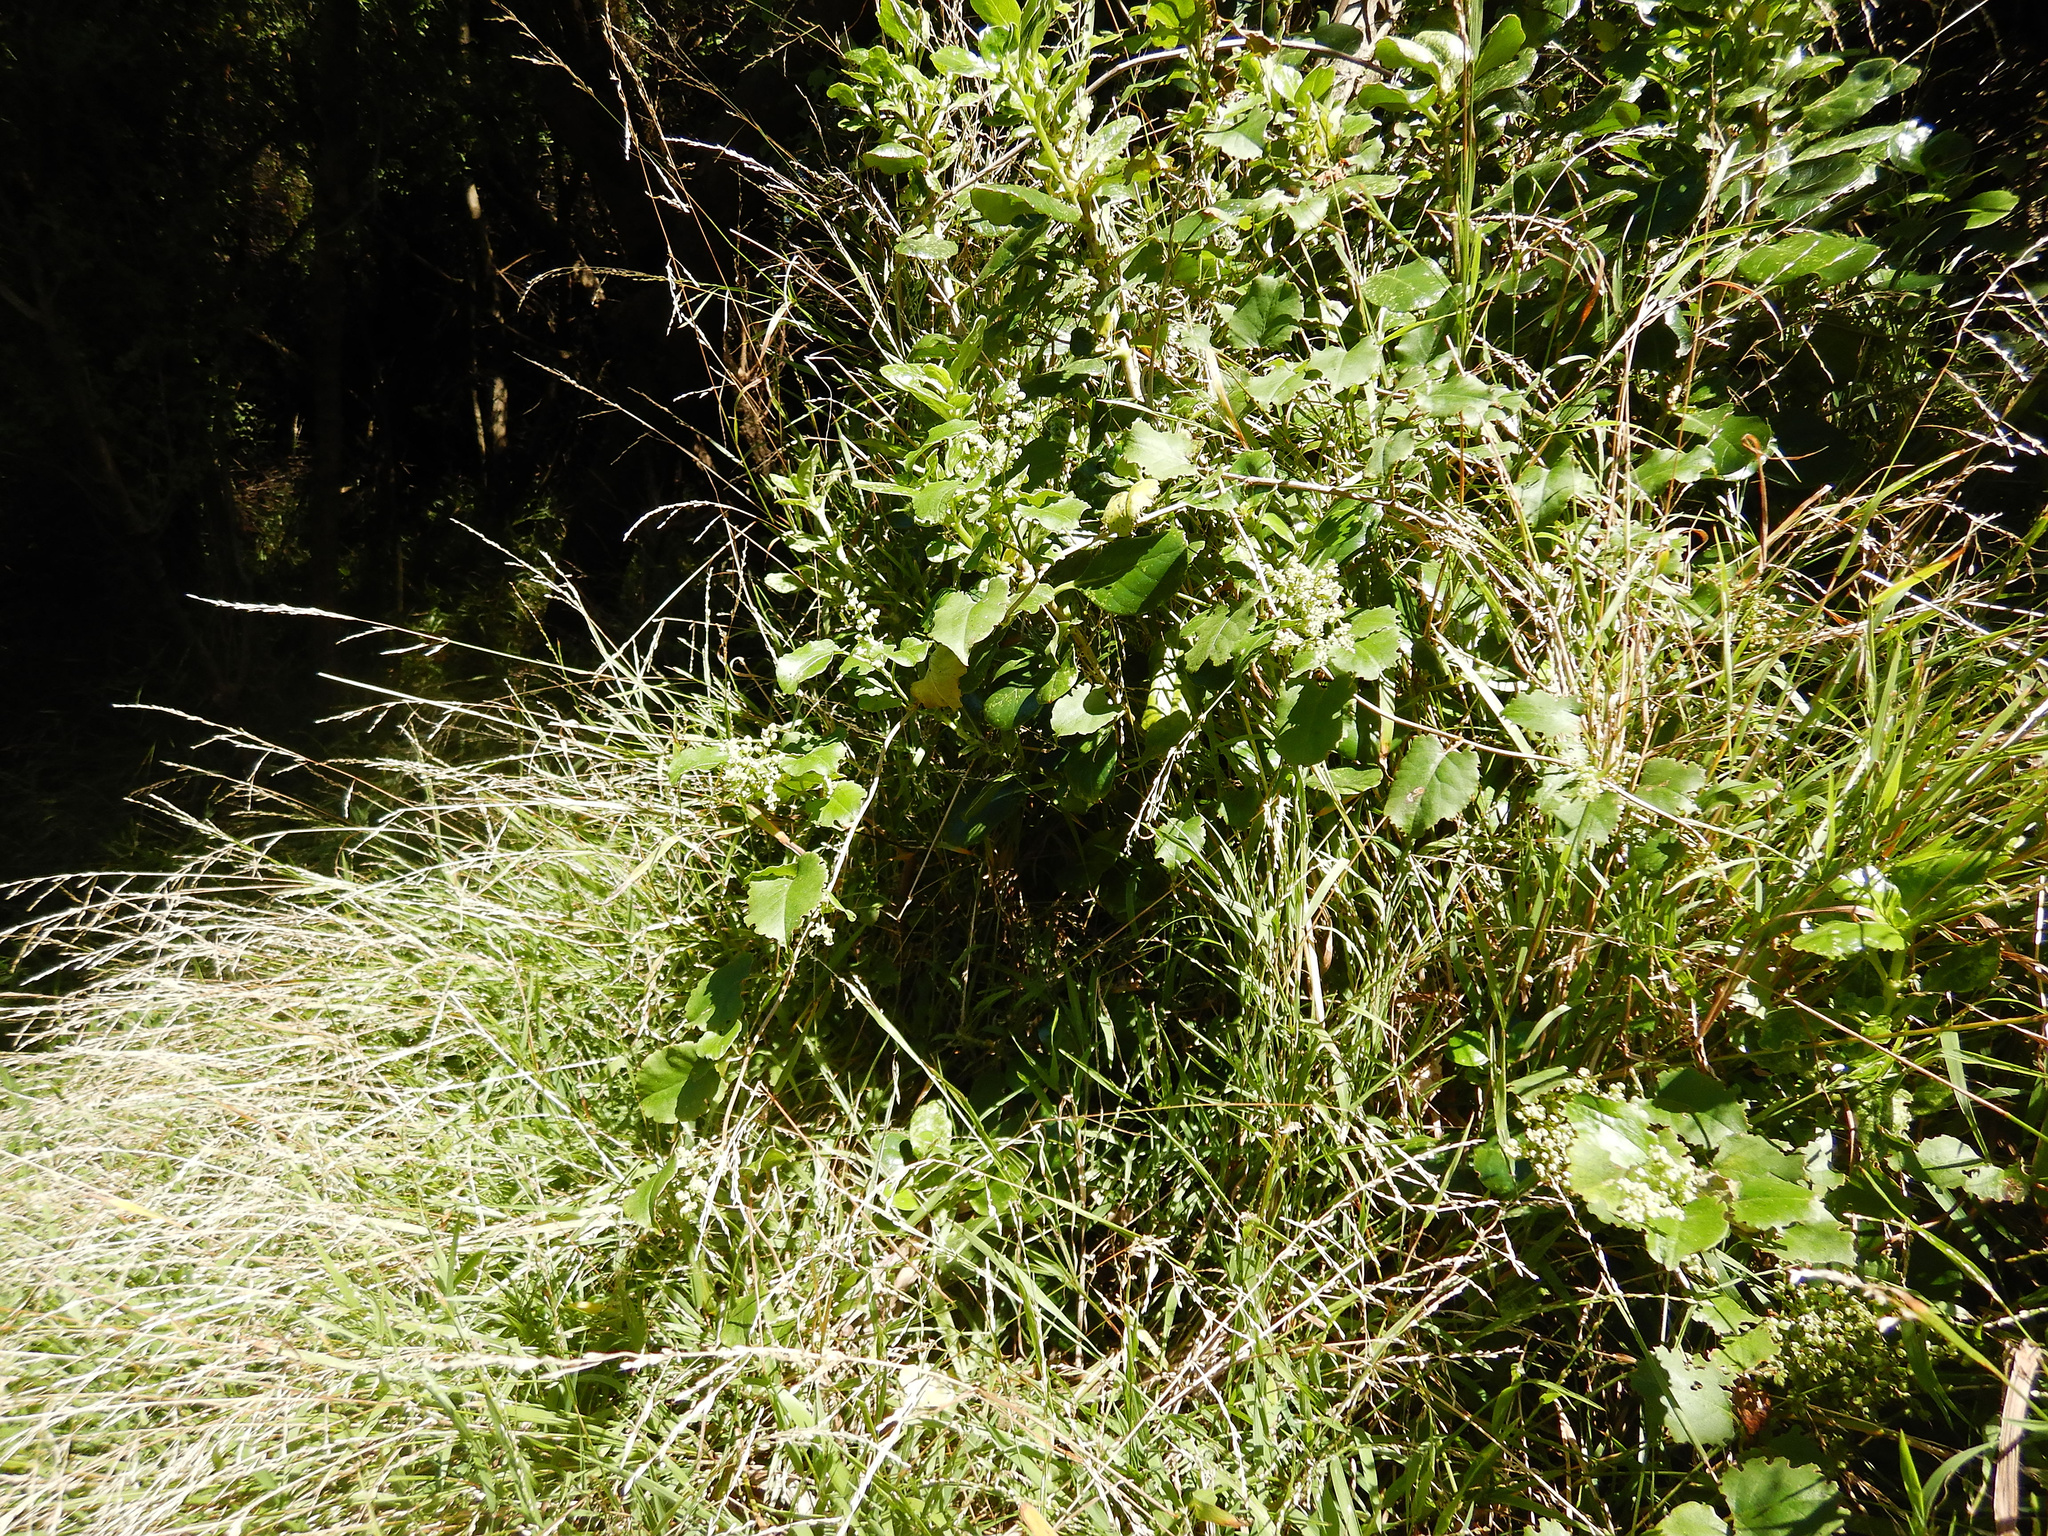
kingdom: Plantae
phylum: Tracheophyta
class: Magnoliopsida
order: Caryophyllales
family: Polygonaceae
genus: Muehlenbeckia
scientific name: Muehlenbeckia australis
